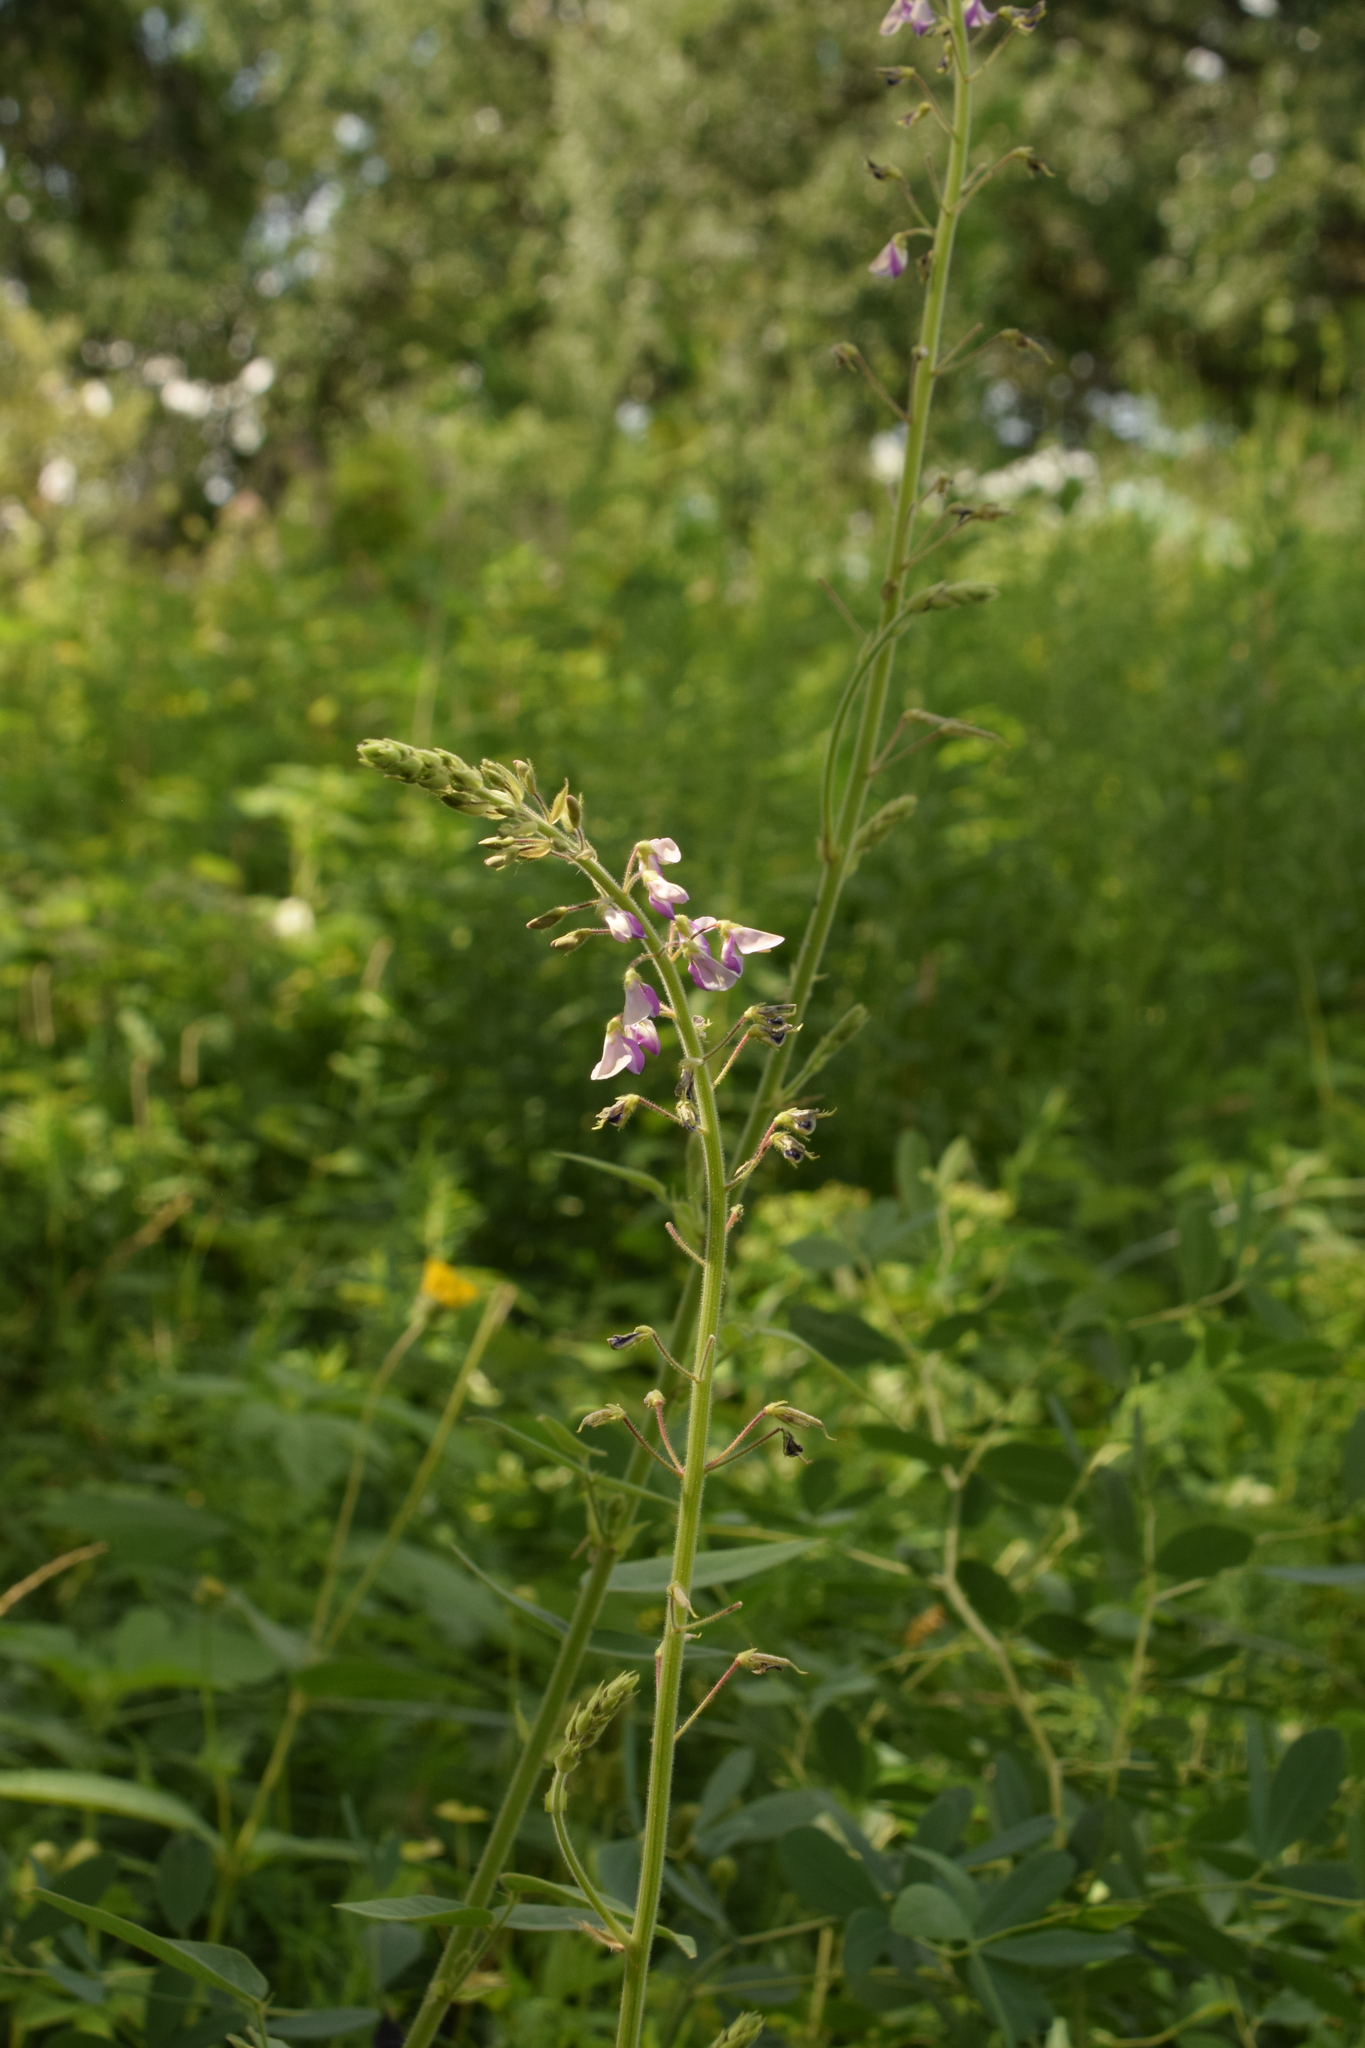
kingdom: Plantae
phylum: Tracheophyta
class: Magnoliopsida
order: Fabales
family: Fabaceae
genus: Desmodium
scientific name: Desmodium illinoense
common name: Illinois tick-clover
